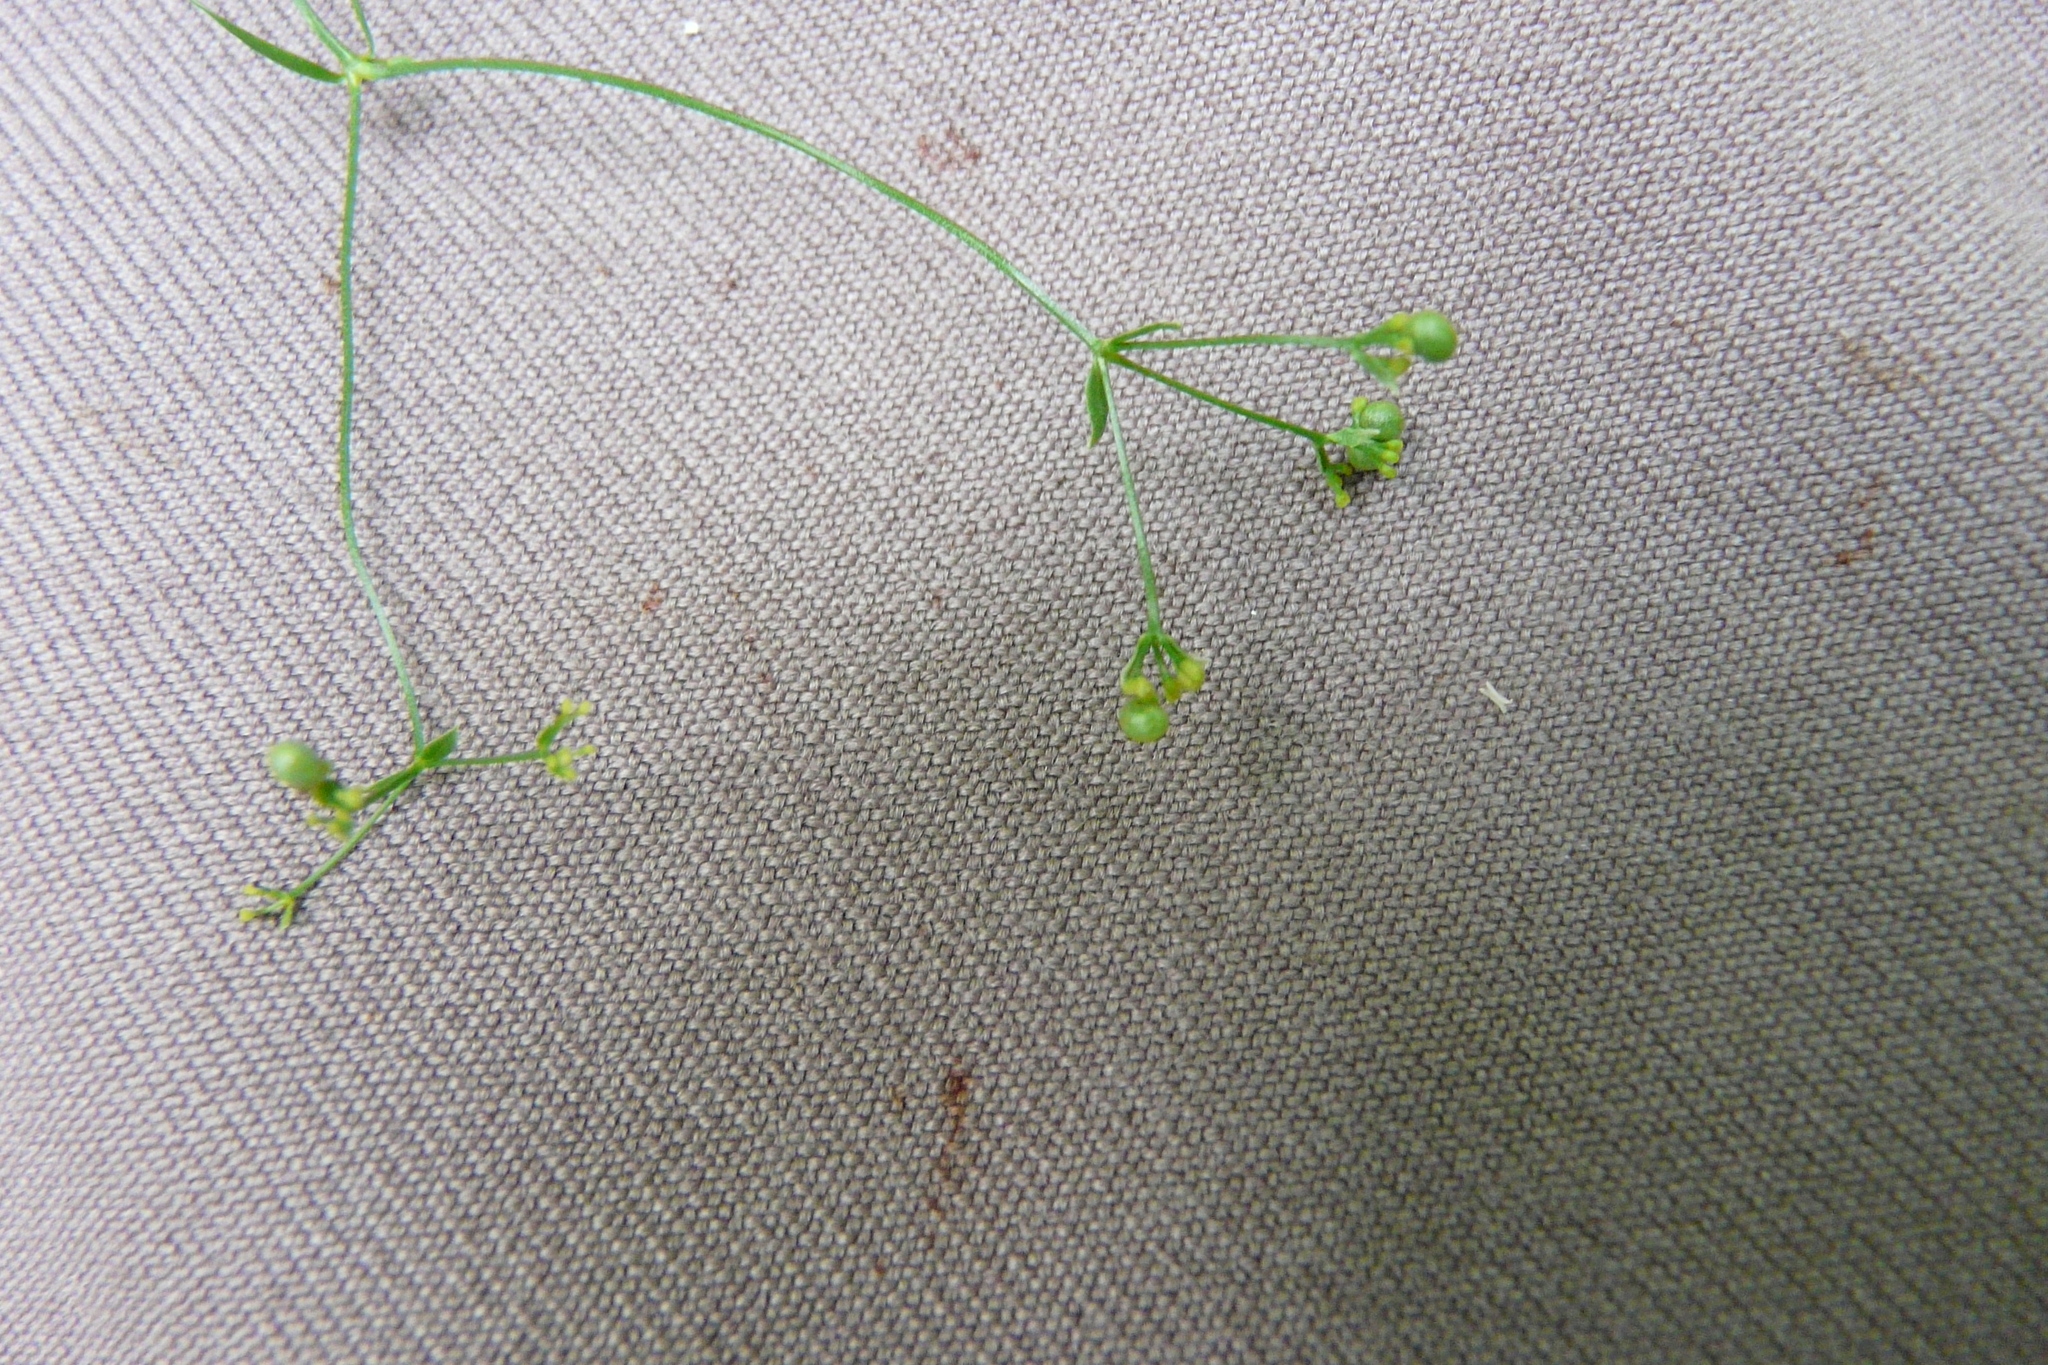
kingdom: Plantae
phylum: Tracheophyta
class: Magnoliopsida
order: Gentianales
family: Rubiaceae
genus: Asperula
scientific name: Asperula tinctoria
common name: Dyer's woodruff
